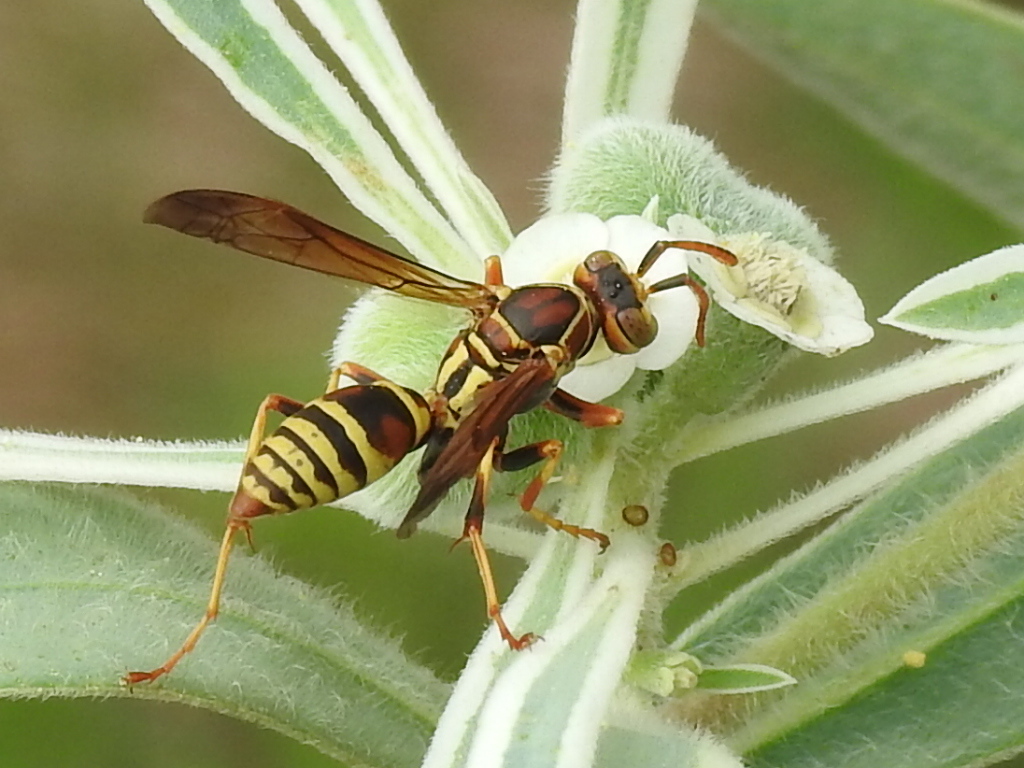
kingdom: Animalia
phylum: Arthropoda
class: Insecta
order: Hymenoptera
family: Eumenidae
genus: Polistes
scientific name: Polistes dorsalis
